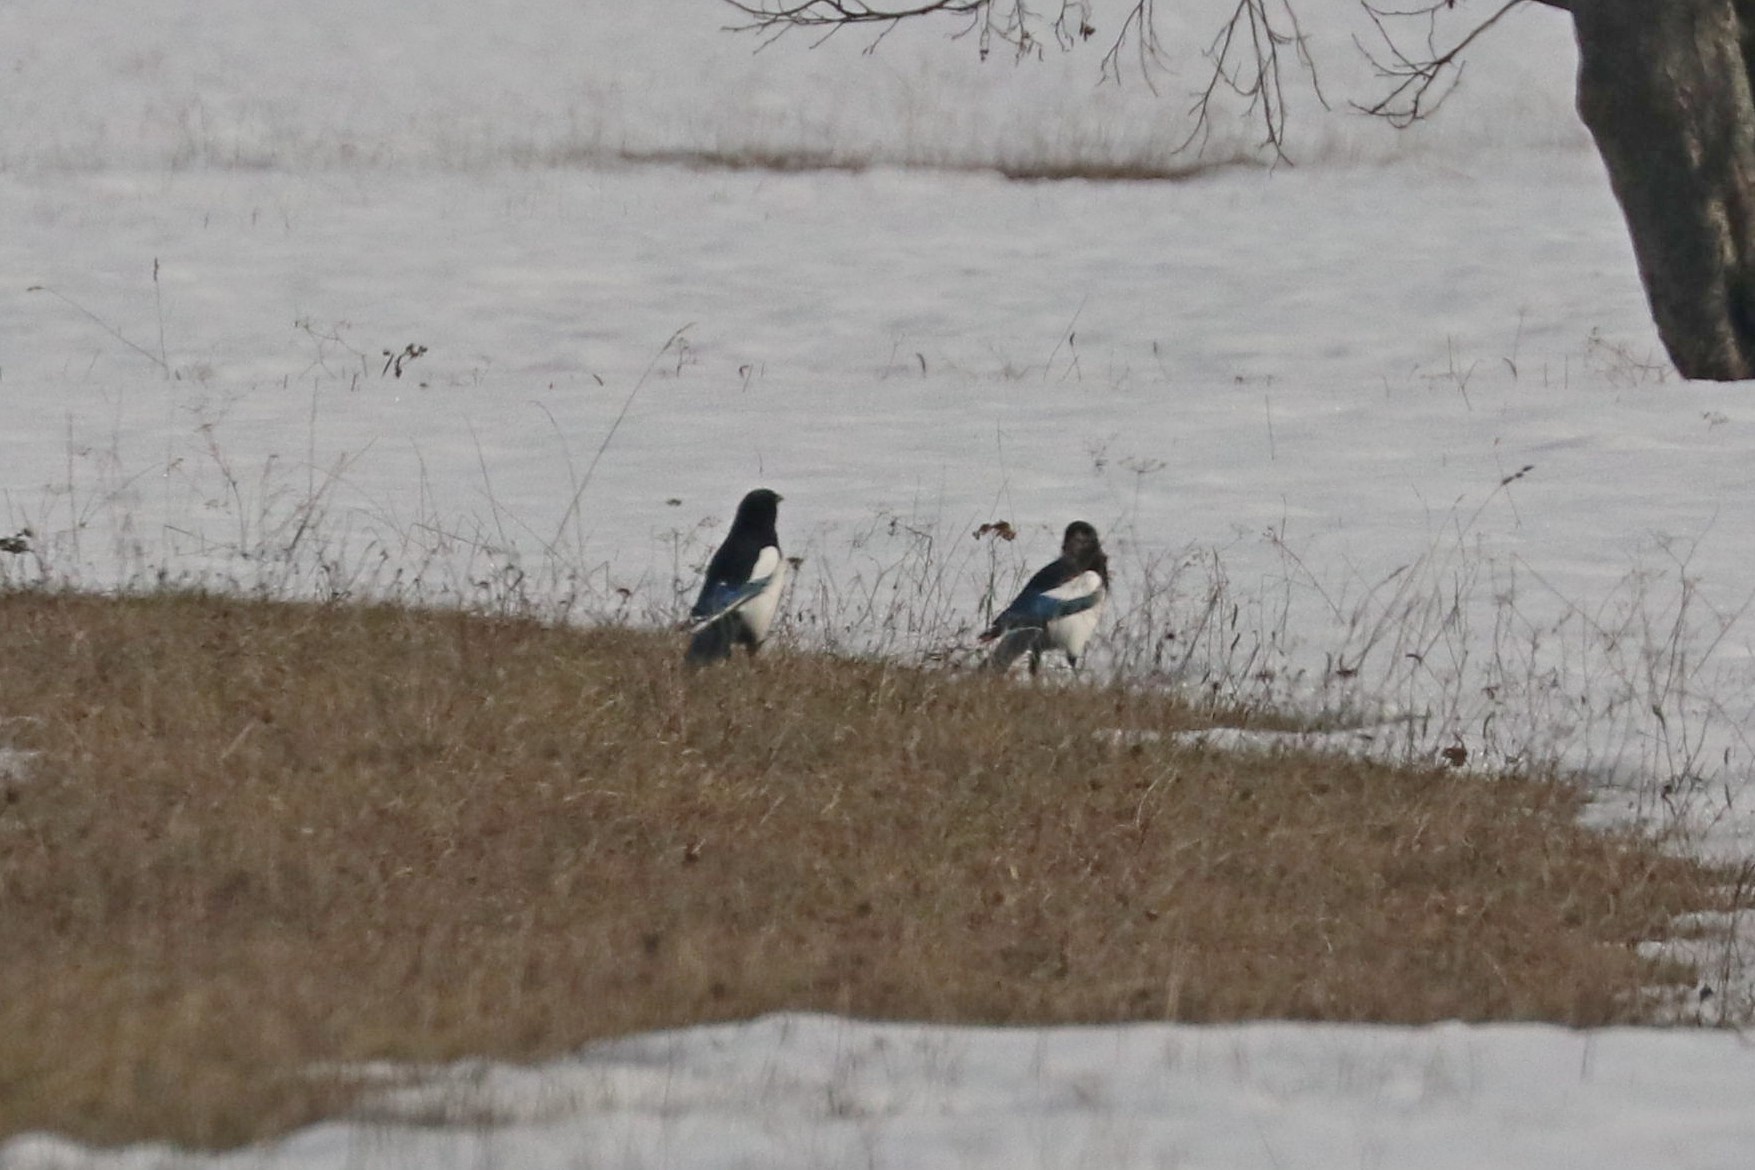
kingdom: Animalia
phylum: Chordata
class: Aves
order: Passeriformes
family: Corvidae
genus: Pica
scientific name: Pica pica
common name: Eurasian magpie
